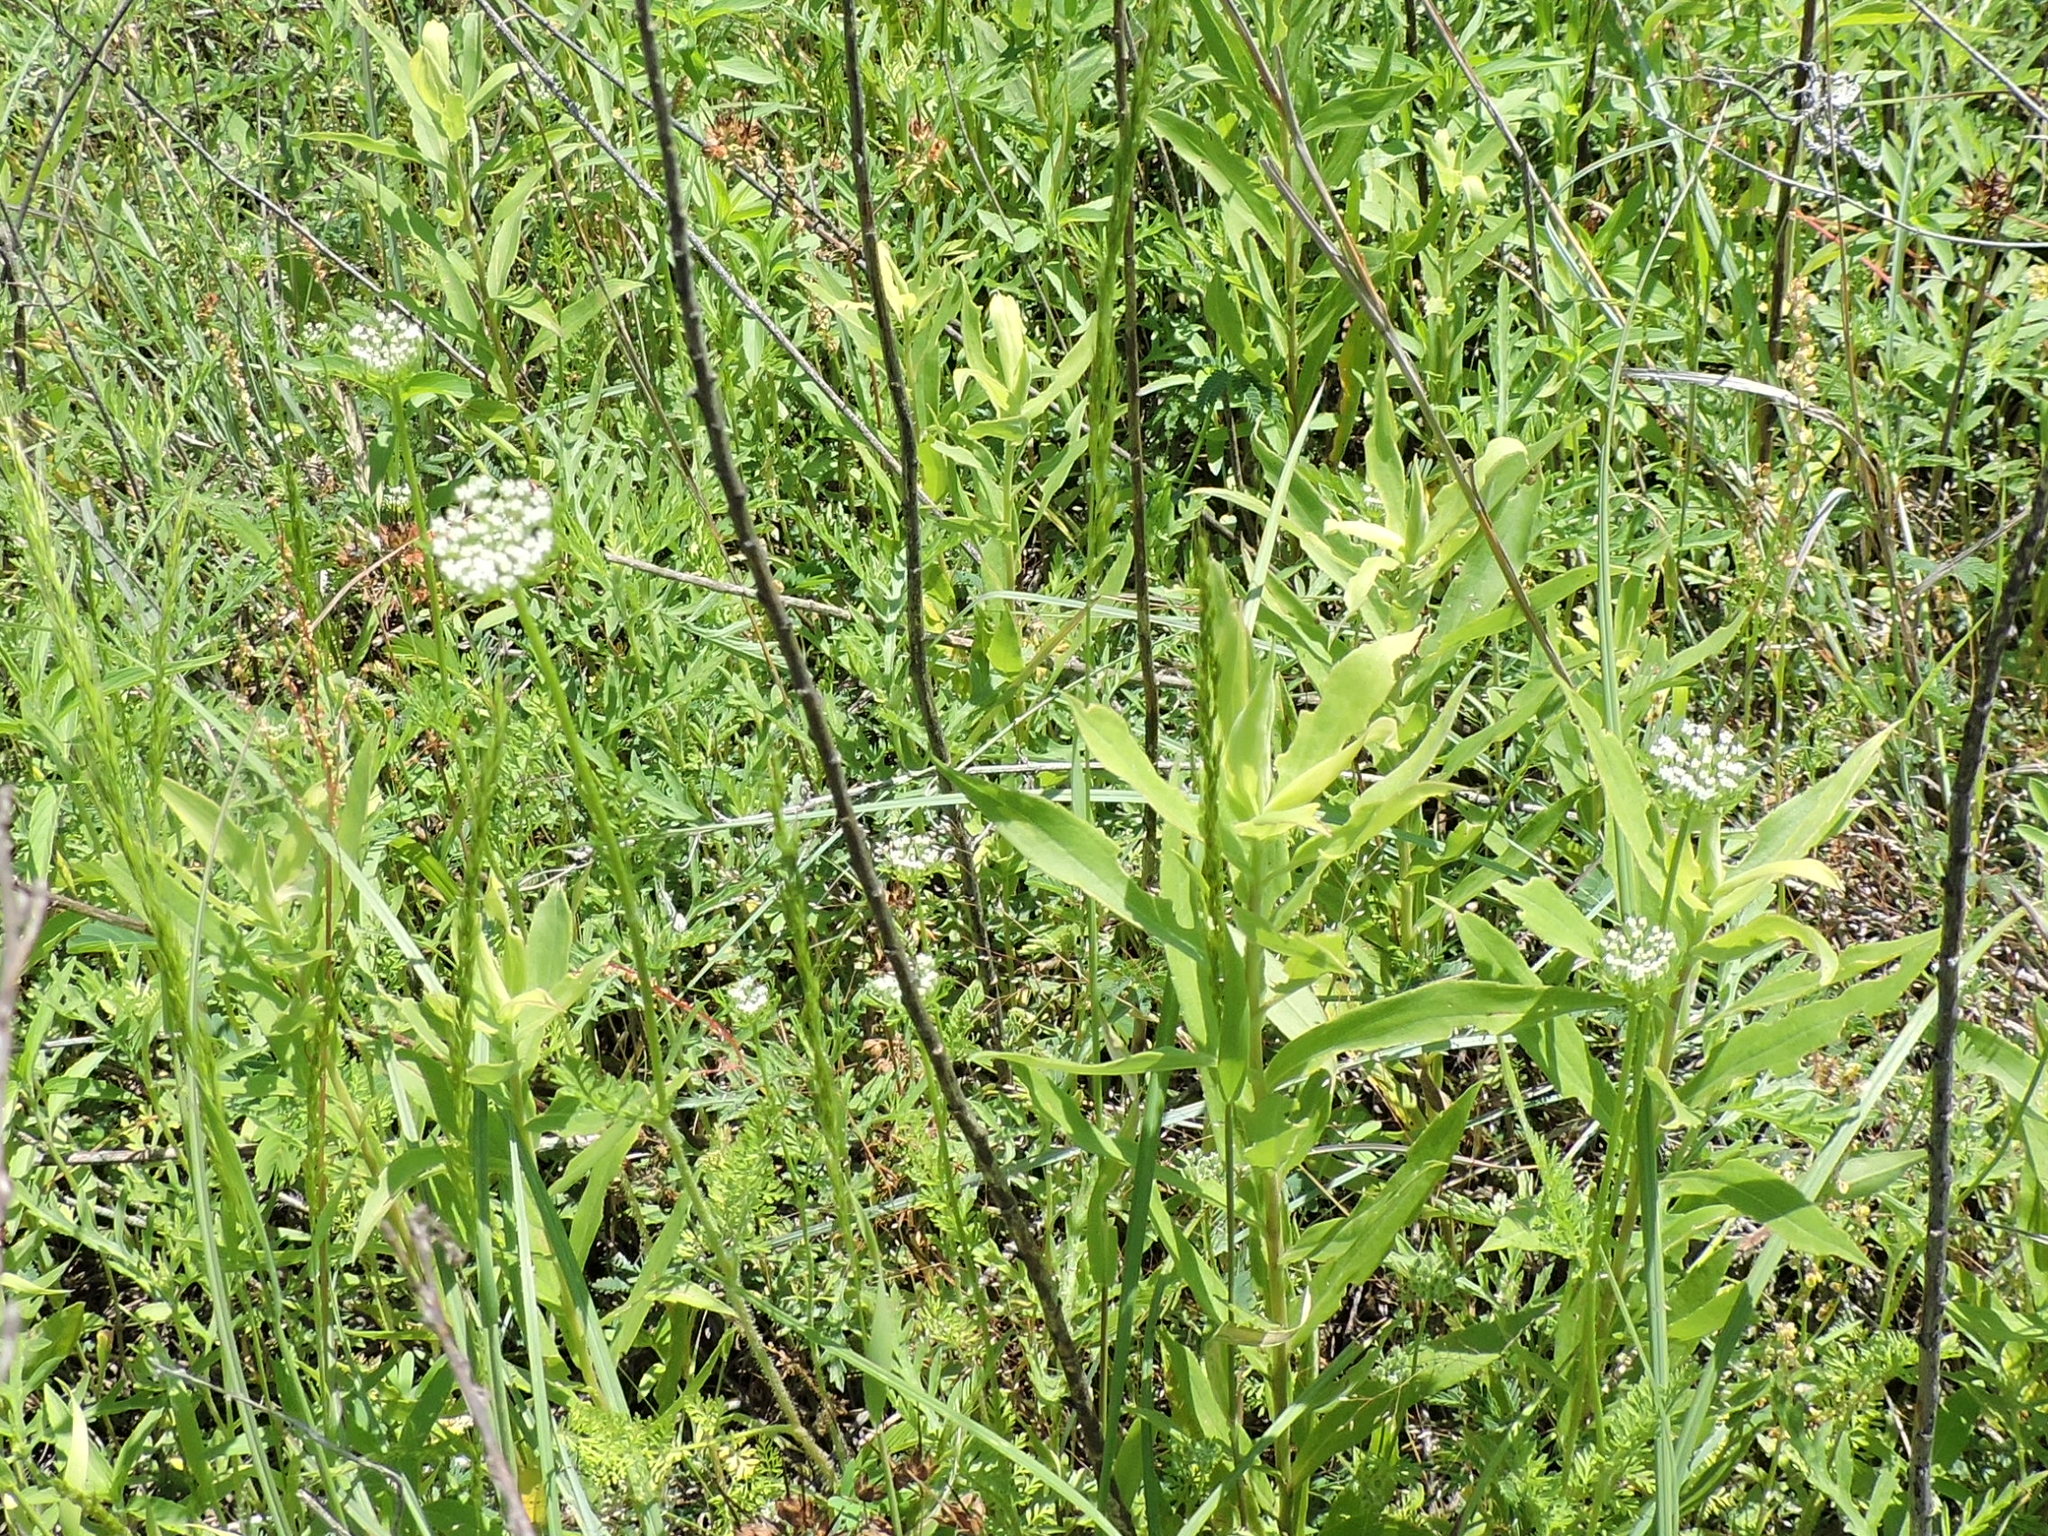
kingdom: Plantae
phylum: Tracheophyta
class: Magnoliopsida
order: Apiales
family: Apiaceae
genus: Daucus
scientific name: Daucus pusillus
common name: Southwest wild carrot
